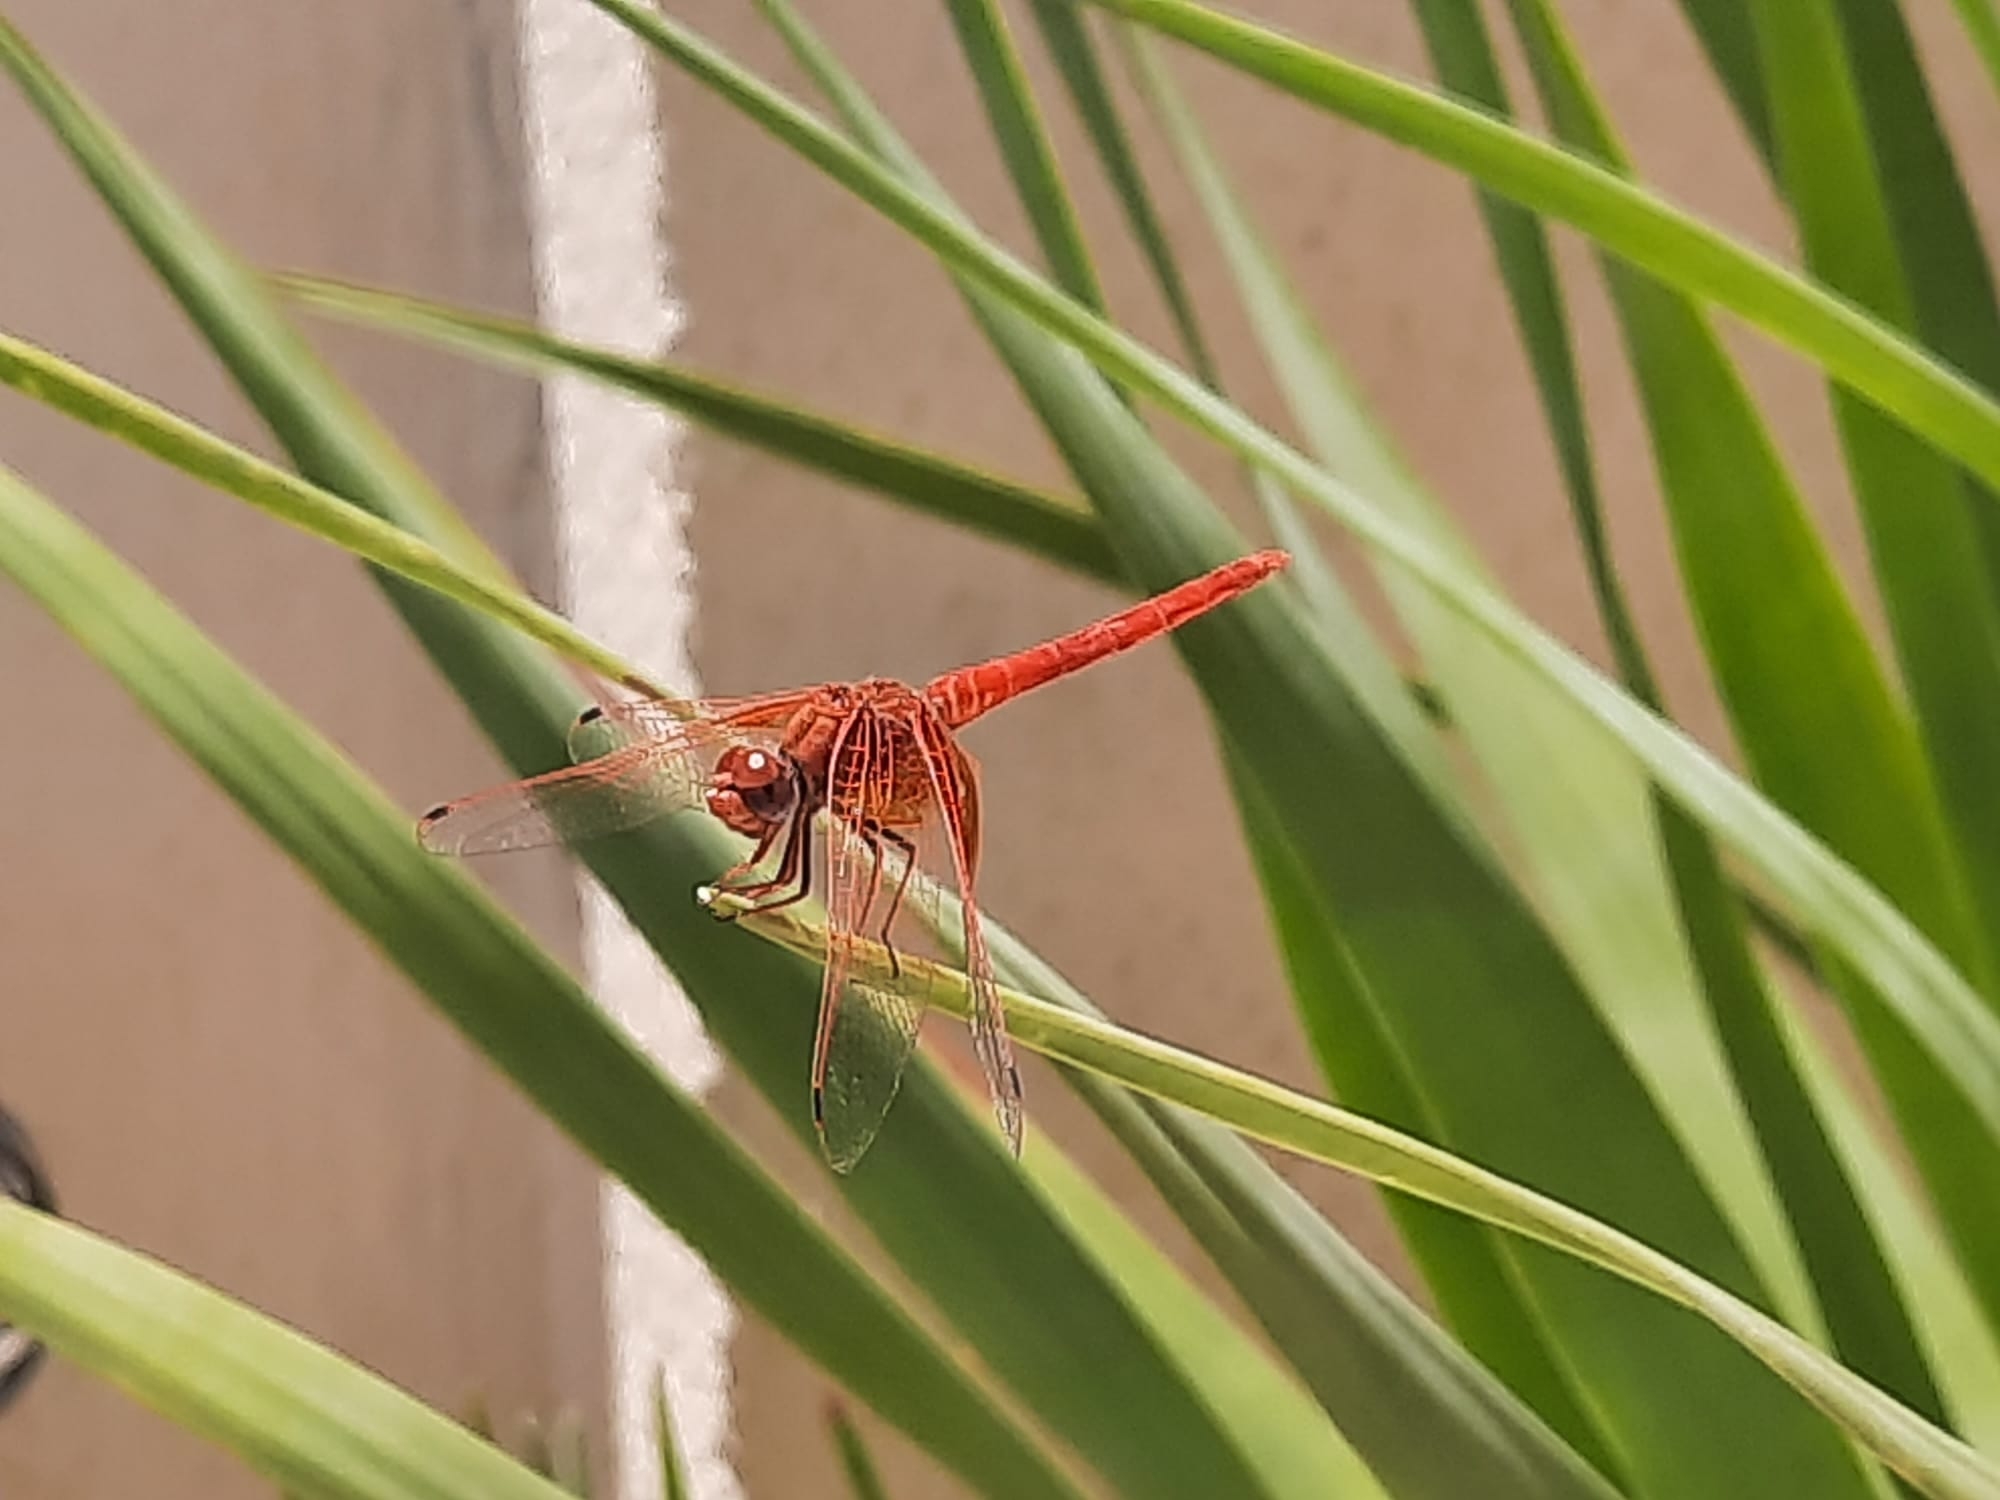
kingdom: Animalia
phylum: Arthropoda
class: Insecta
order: Odonata
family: Libellulidae
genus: Trithemis
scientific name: Trithemis kirbyi
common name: Kirby's dropwing
